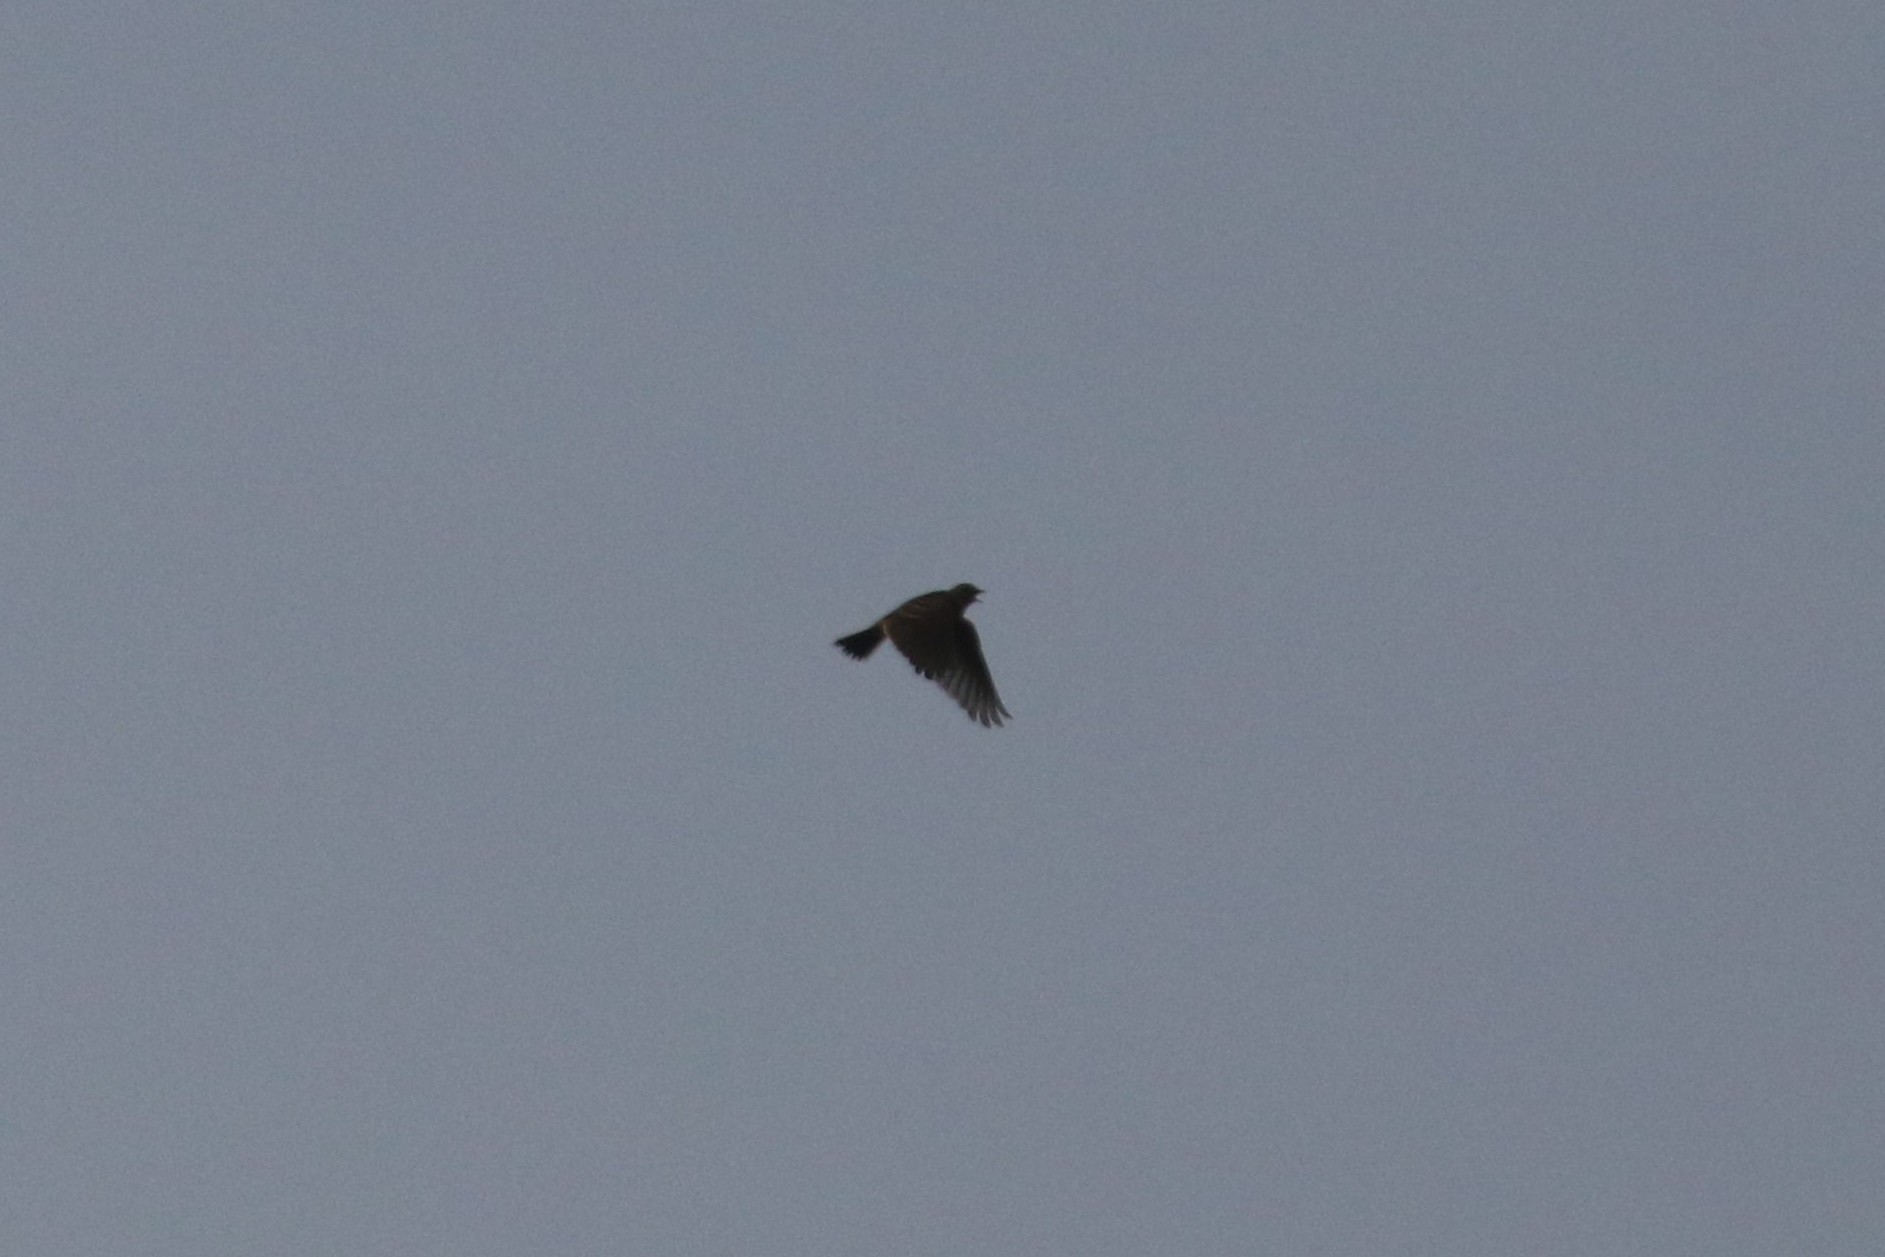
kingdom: Animalia
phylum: Chordata
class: Aves
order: Passeriformes
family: Alaudidae
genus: Alauda
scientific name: Alauda arvensis
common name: Eurasian skylark
